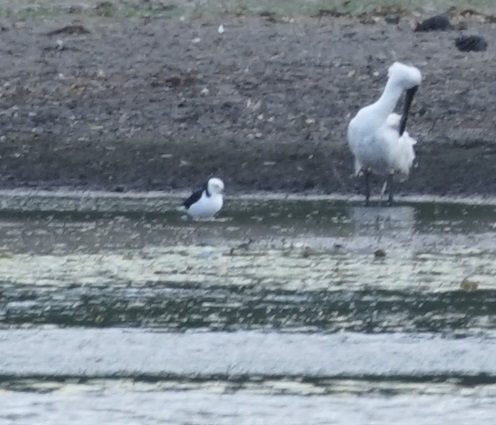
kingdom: Animalia
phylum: Chordata
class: Aves
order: Charadriiformes
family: Recurvirostridae
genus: Himantopus
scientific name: Himantopus leucocephalus
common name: White-headed stilt
